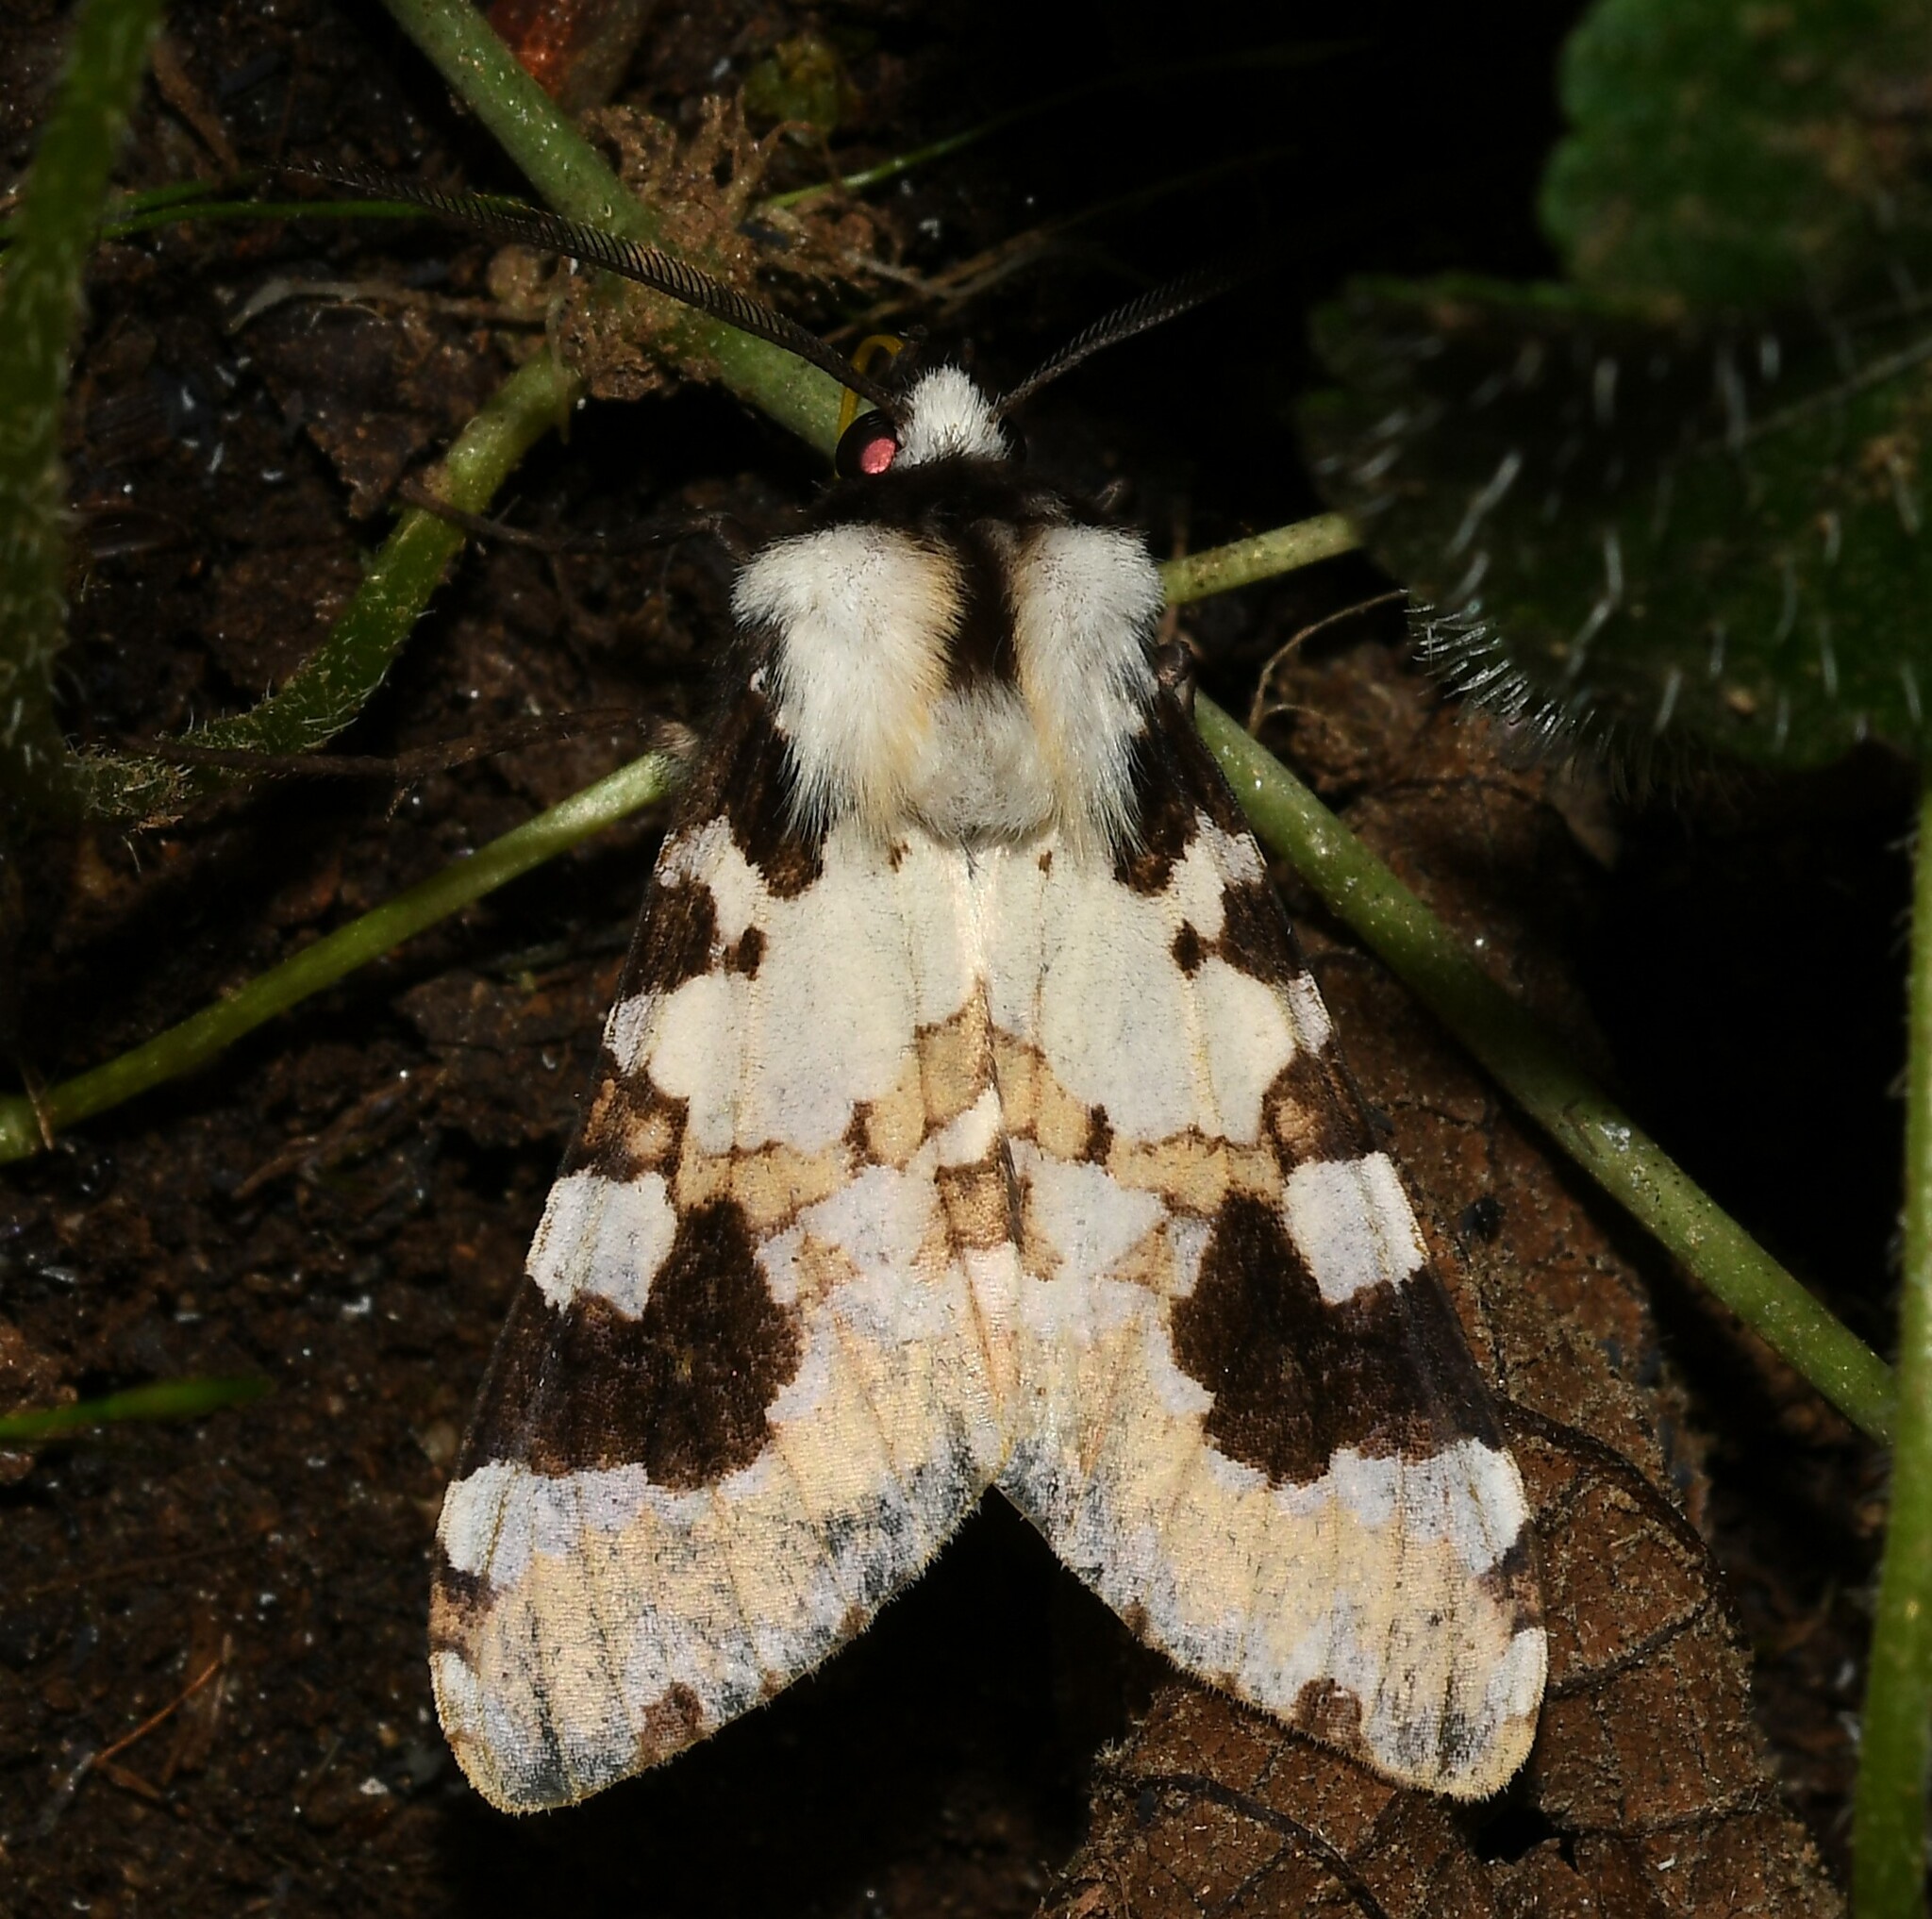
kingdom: Animalia
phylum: Arthropoda
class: Insecta
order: Lepidoptera
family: Erebidae
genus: Elysius
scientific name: Elysius
